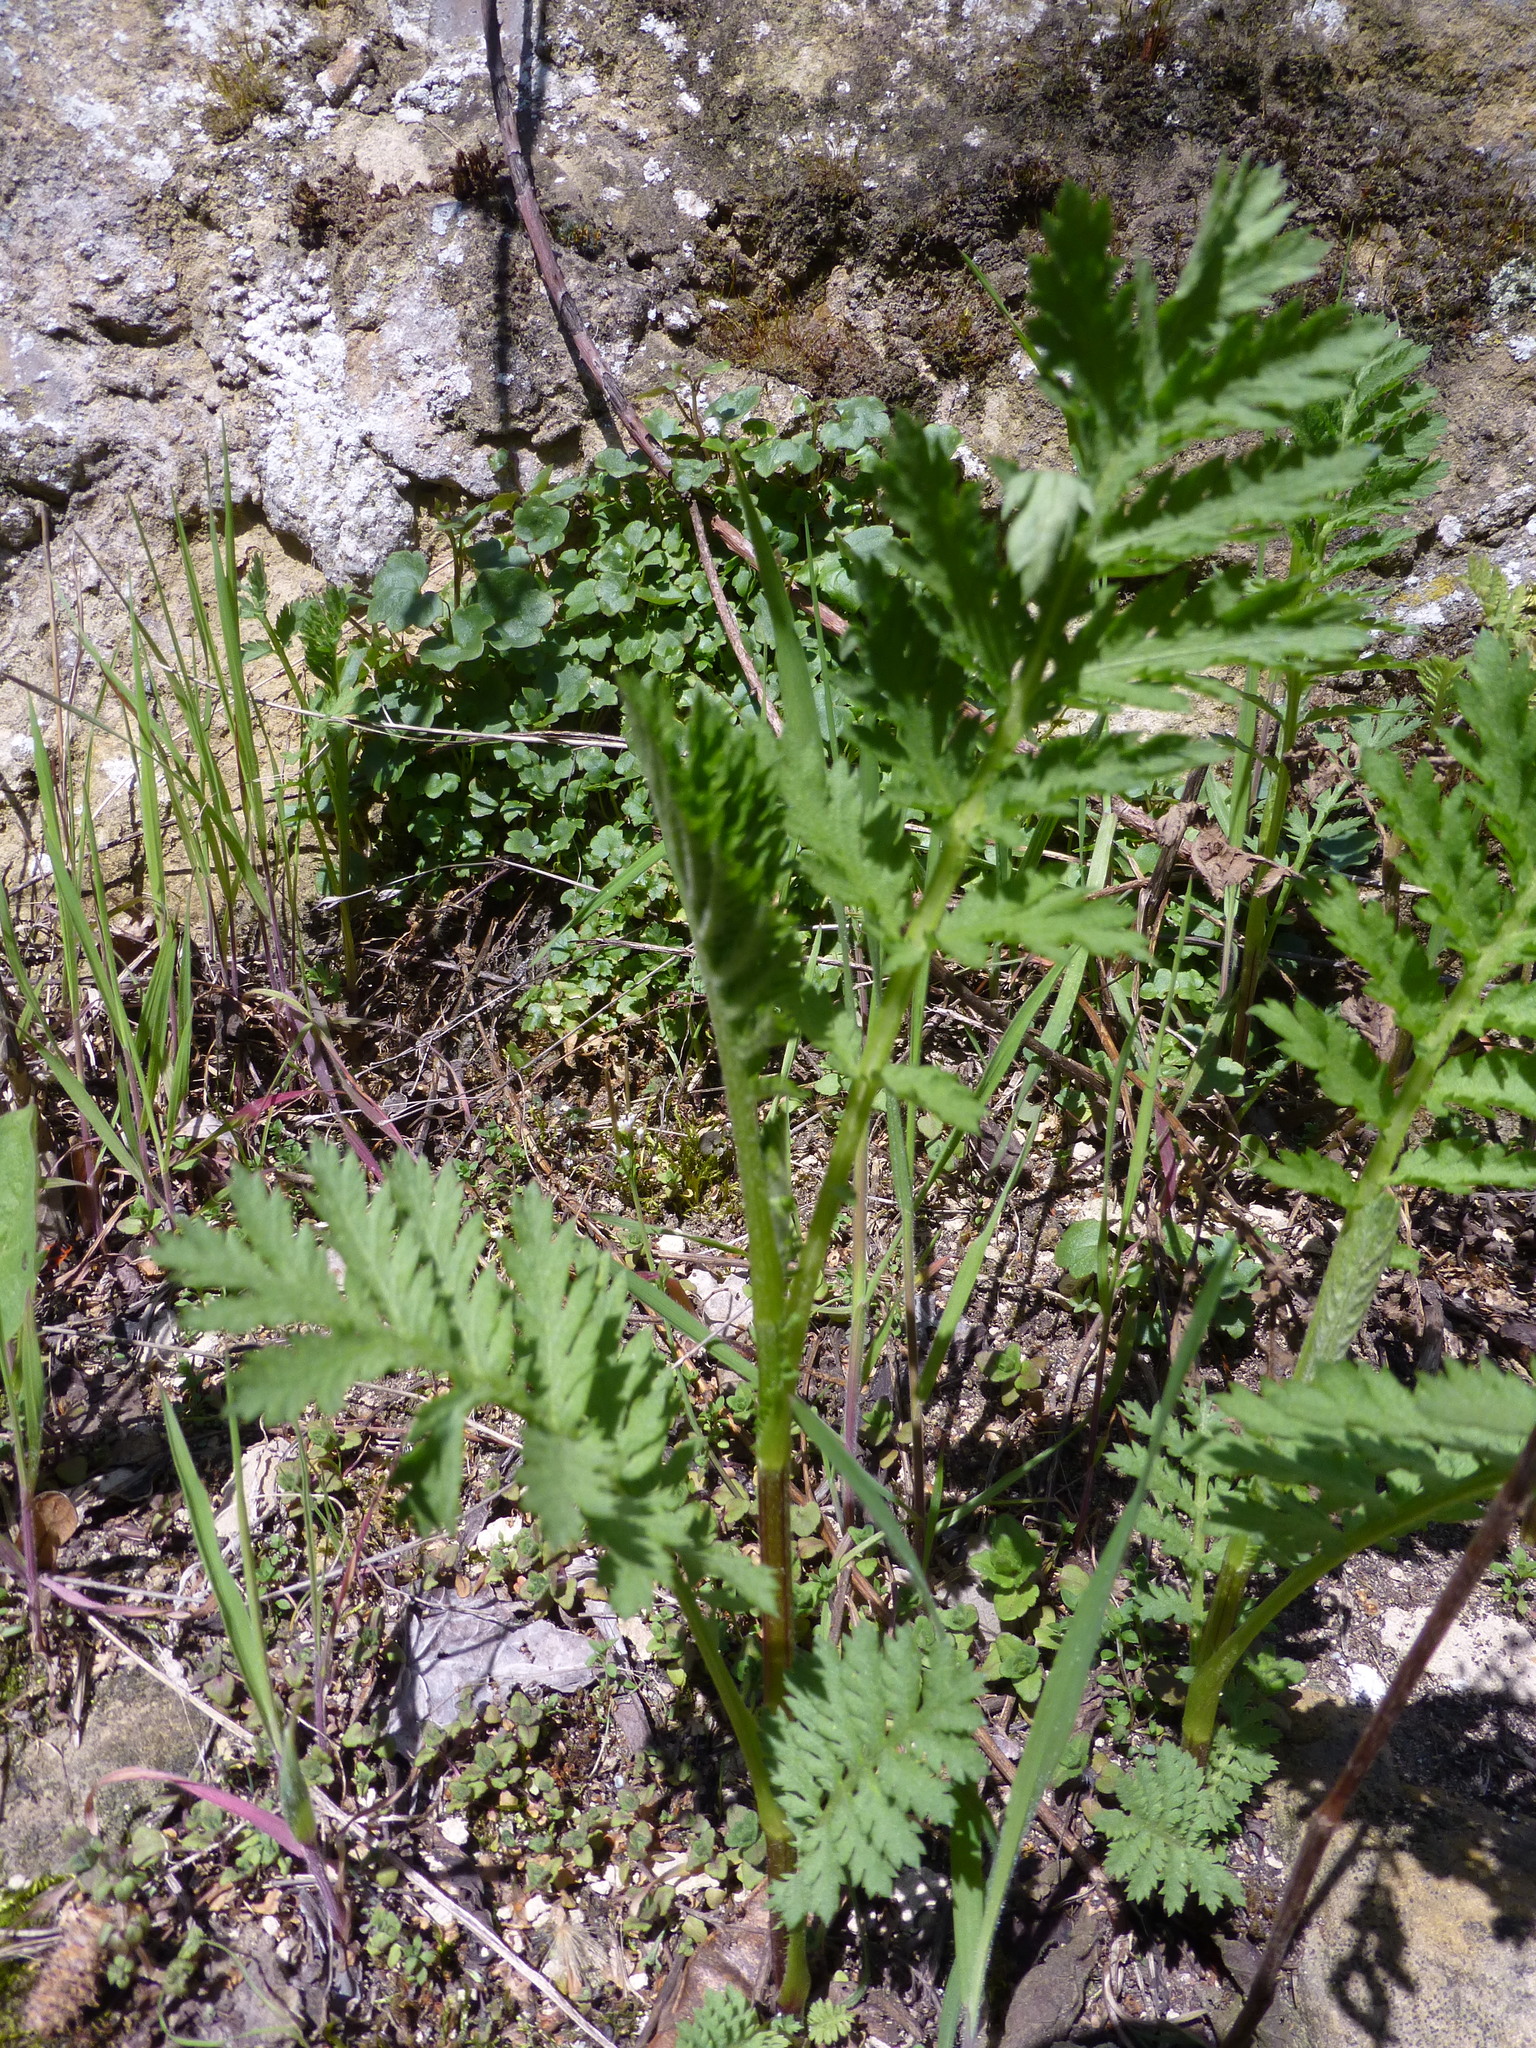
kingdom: Plantae
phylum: Tracheophyta
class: Magnoliopsida
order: Asterales
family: Asteraceae
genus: Tanacetum
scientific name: Tanacetum vulgare
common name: Common tansy
